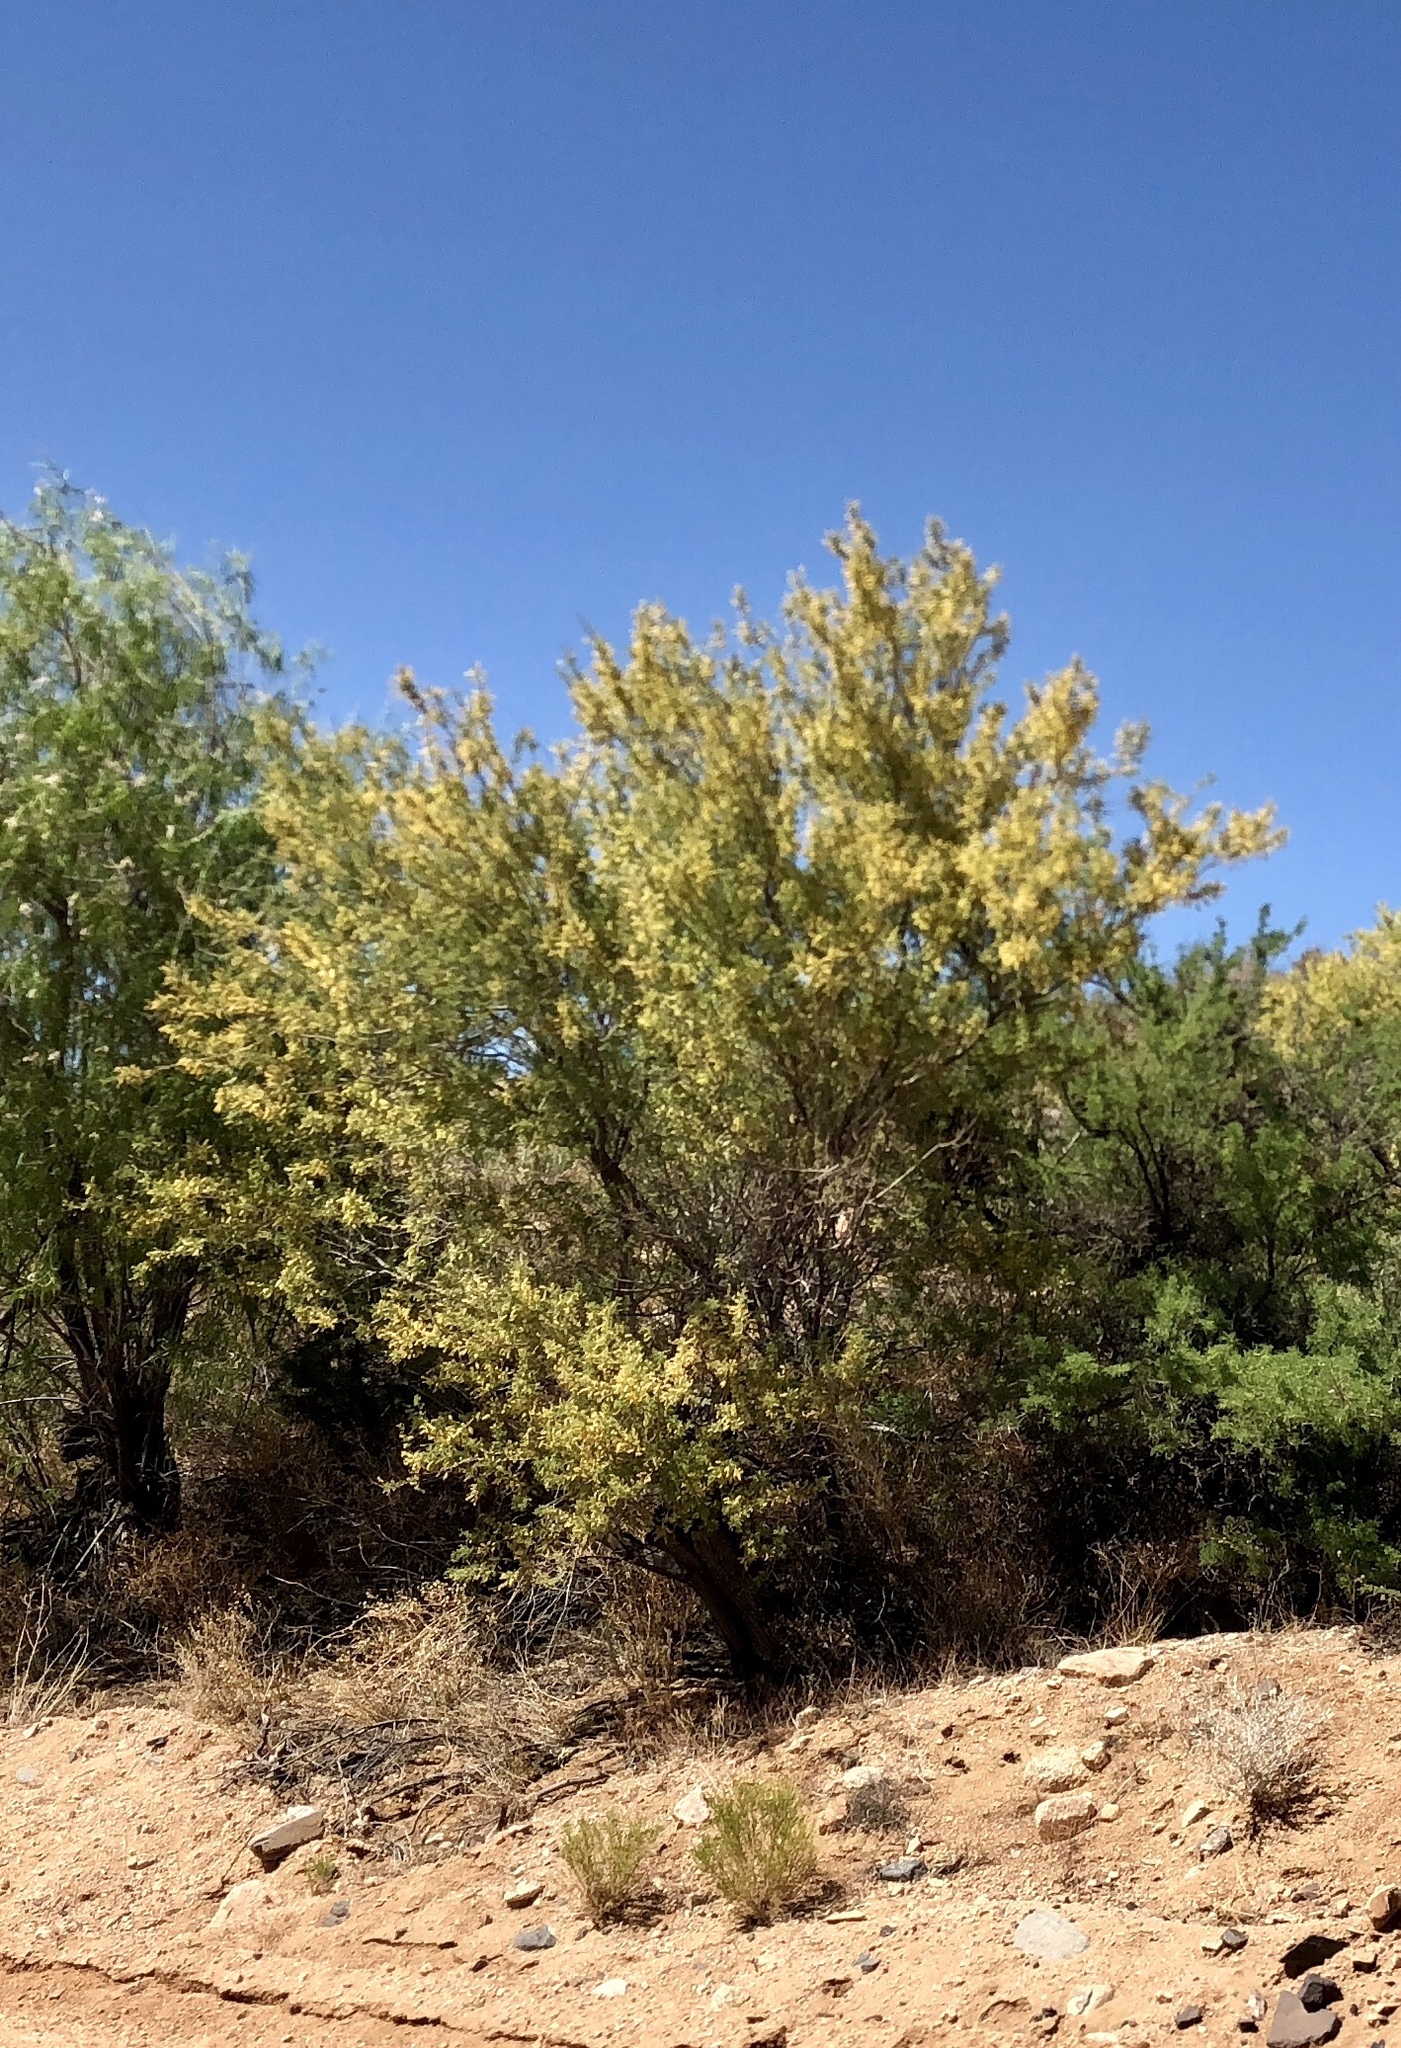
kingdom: Plantae
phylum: Tracheophyta
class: Magnoliopsida
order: Fabales
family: Fabaceae
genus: Senegalia
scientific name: Senegalia greggii
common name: Texas-mimosa
